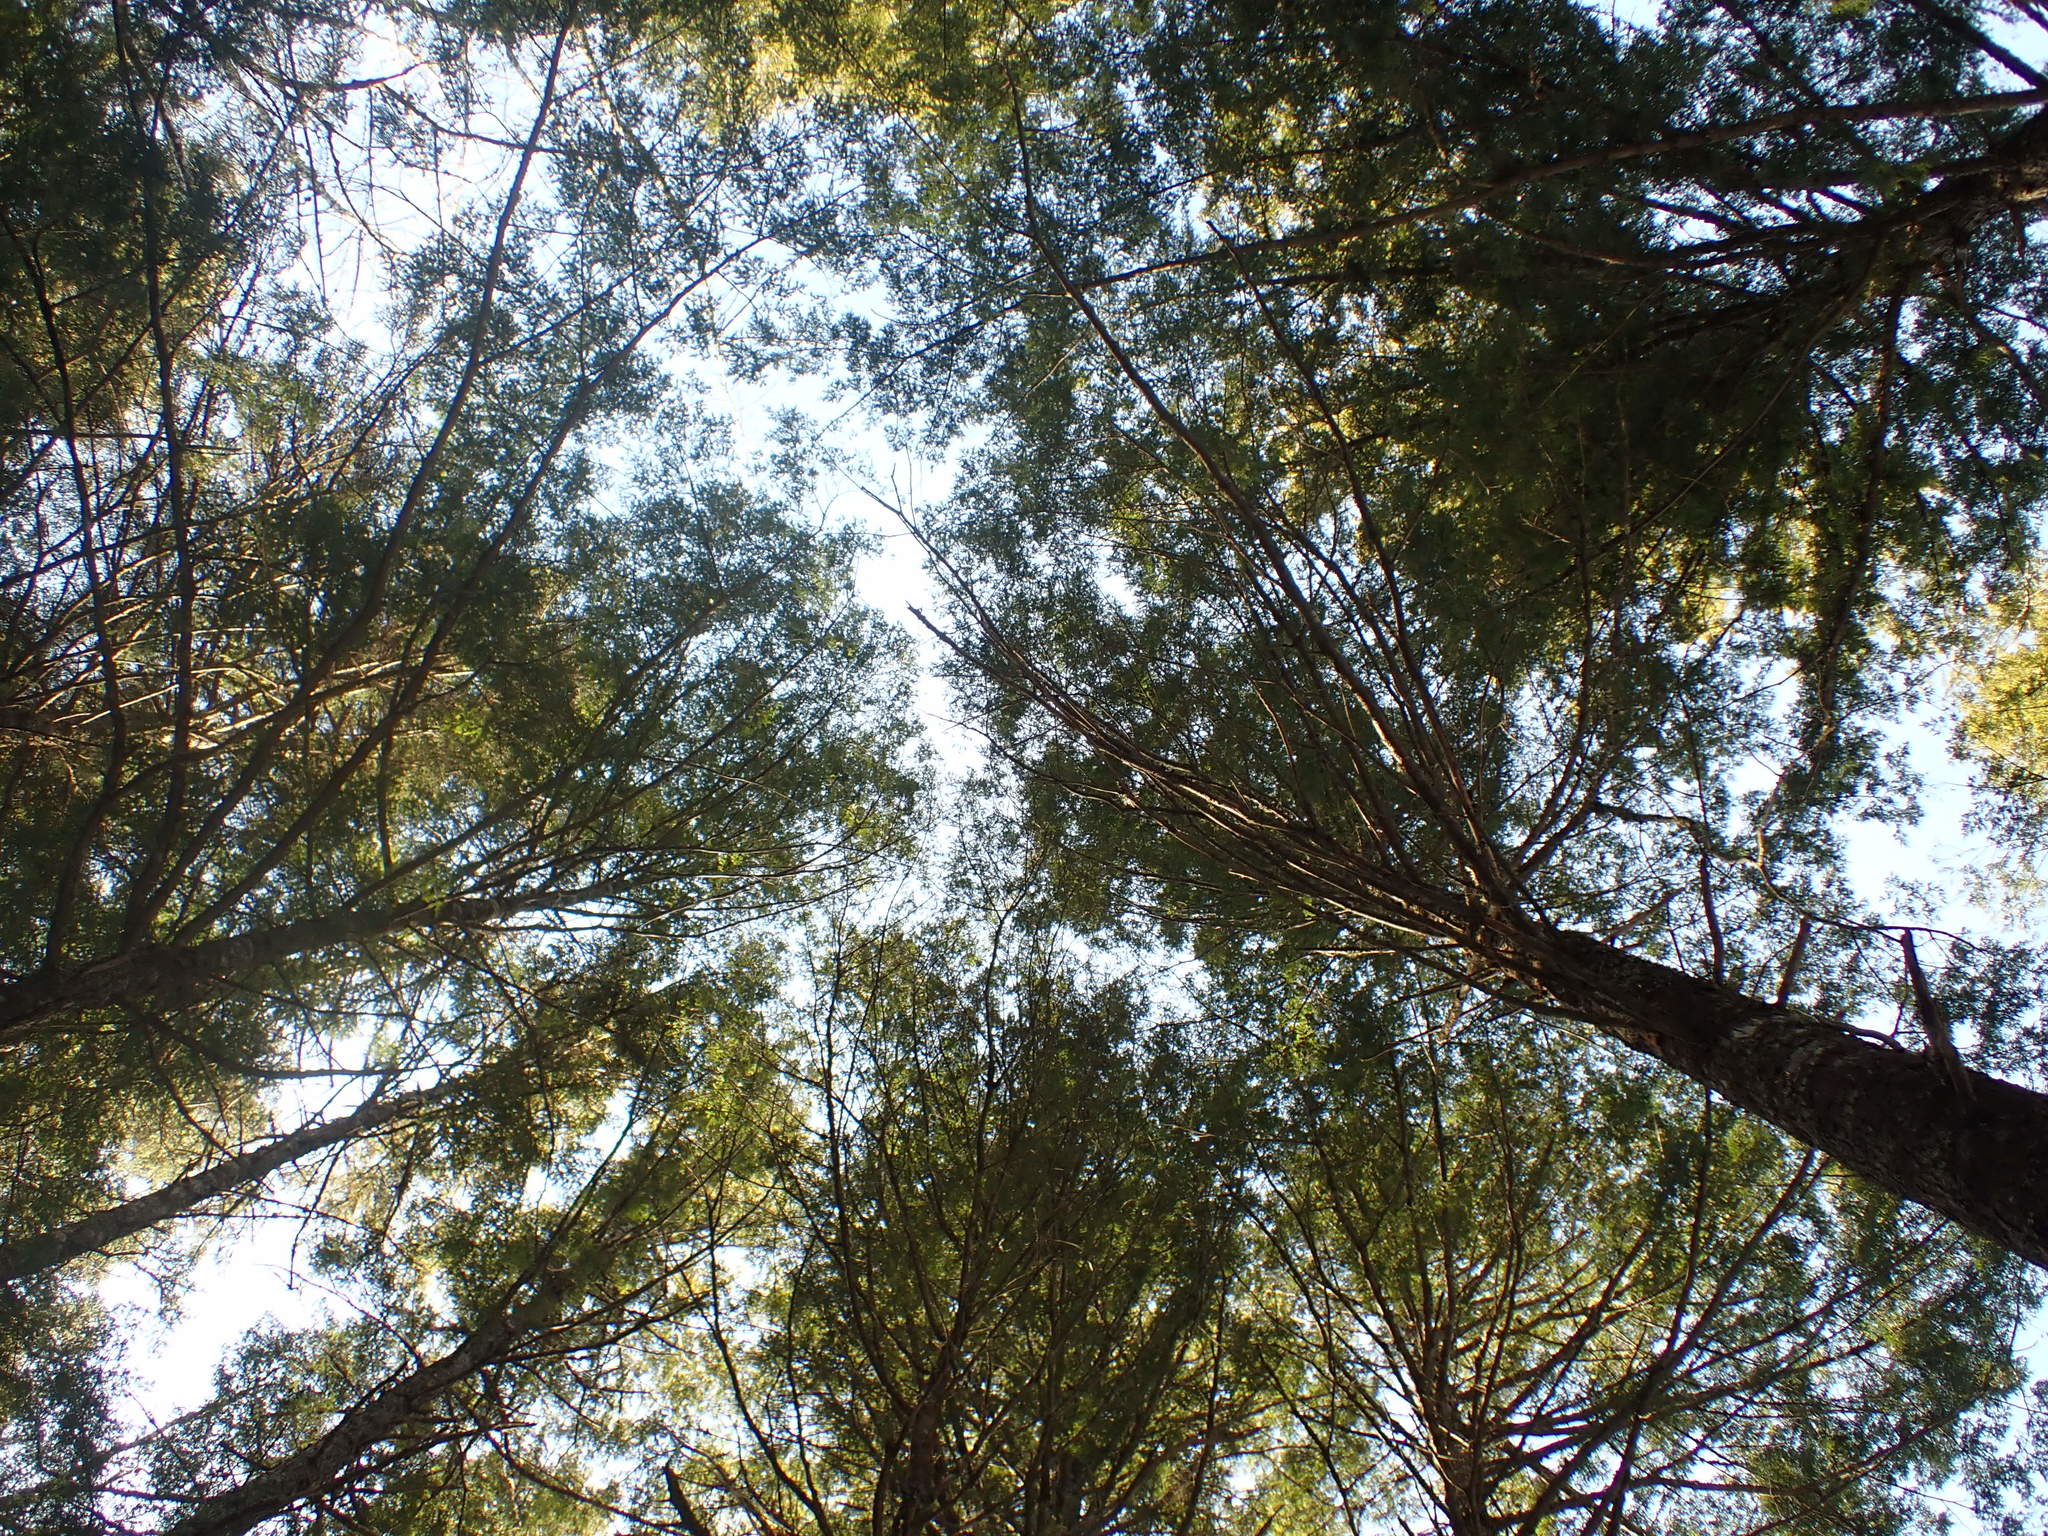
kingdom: Plantae
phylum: Tracheophyta
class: Pinopsida
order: Pinales
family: Pinaceae
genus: Tsuga
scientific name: Tsuga canadensis
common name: Eastern hemlock
